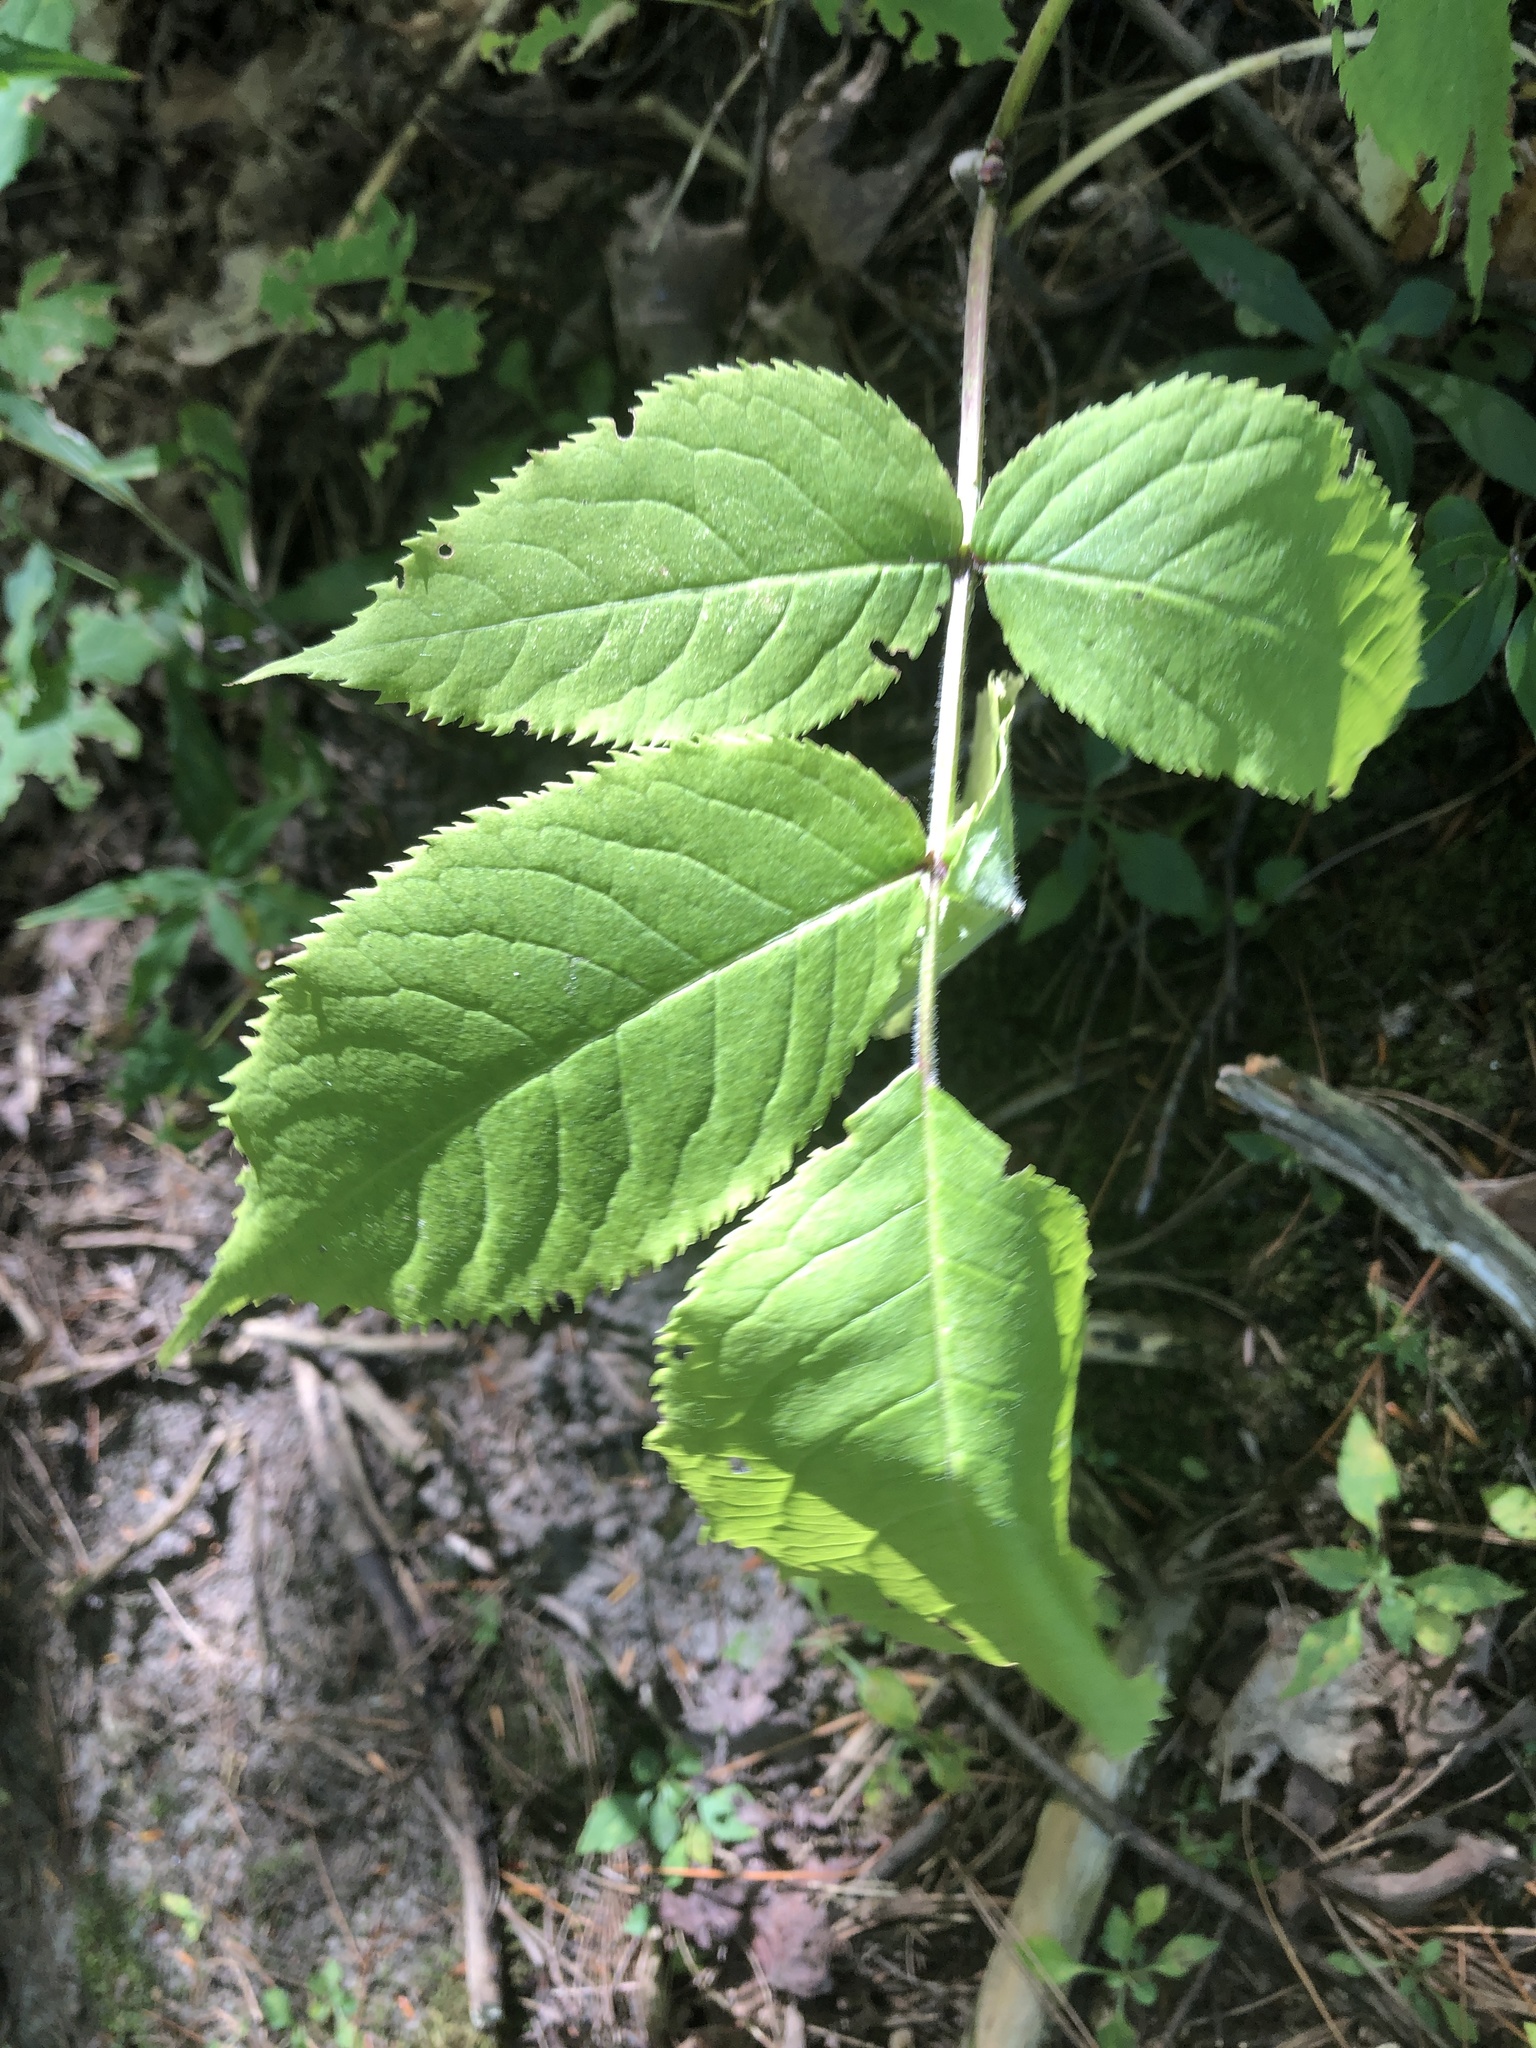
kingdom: Plantae
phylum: Tracheophyta
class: Magnoliopsida
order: Dipsacales
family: Viburnaceae
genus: Sambucus
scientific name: Sambucus racemosa
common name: Red-berried elder
